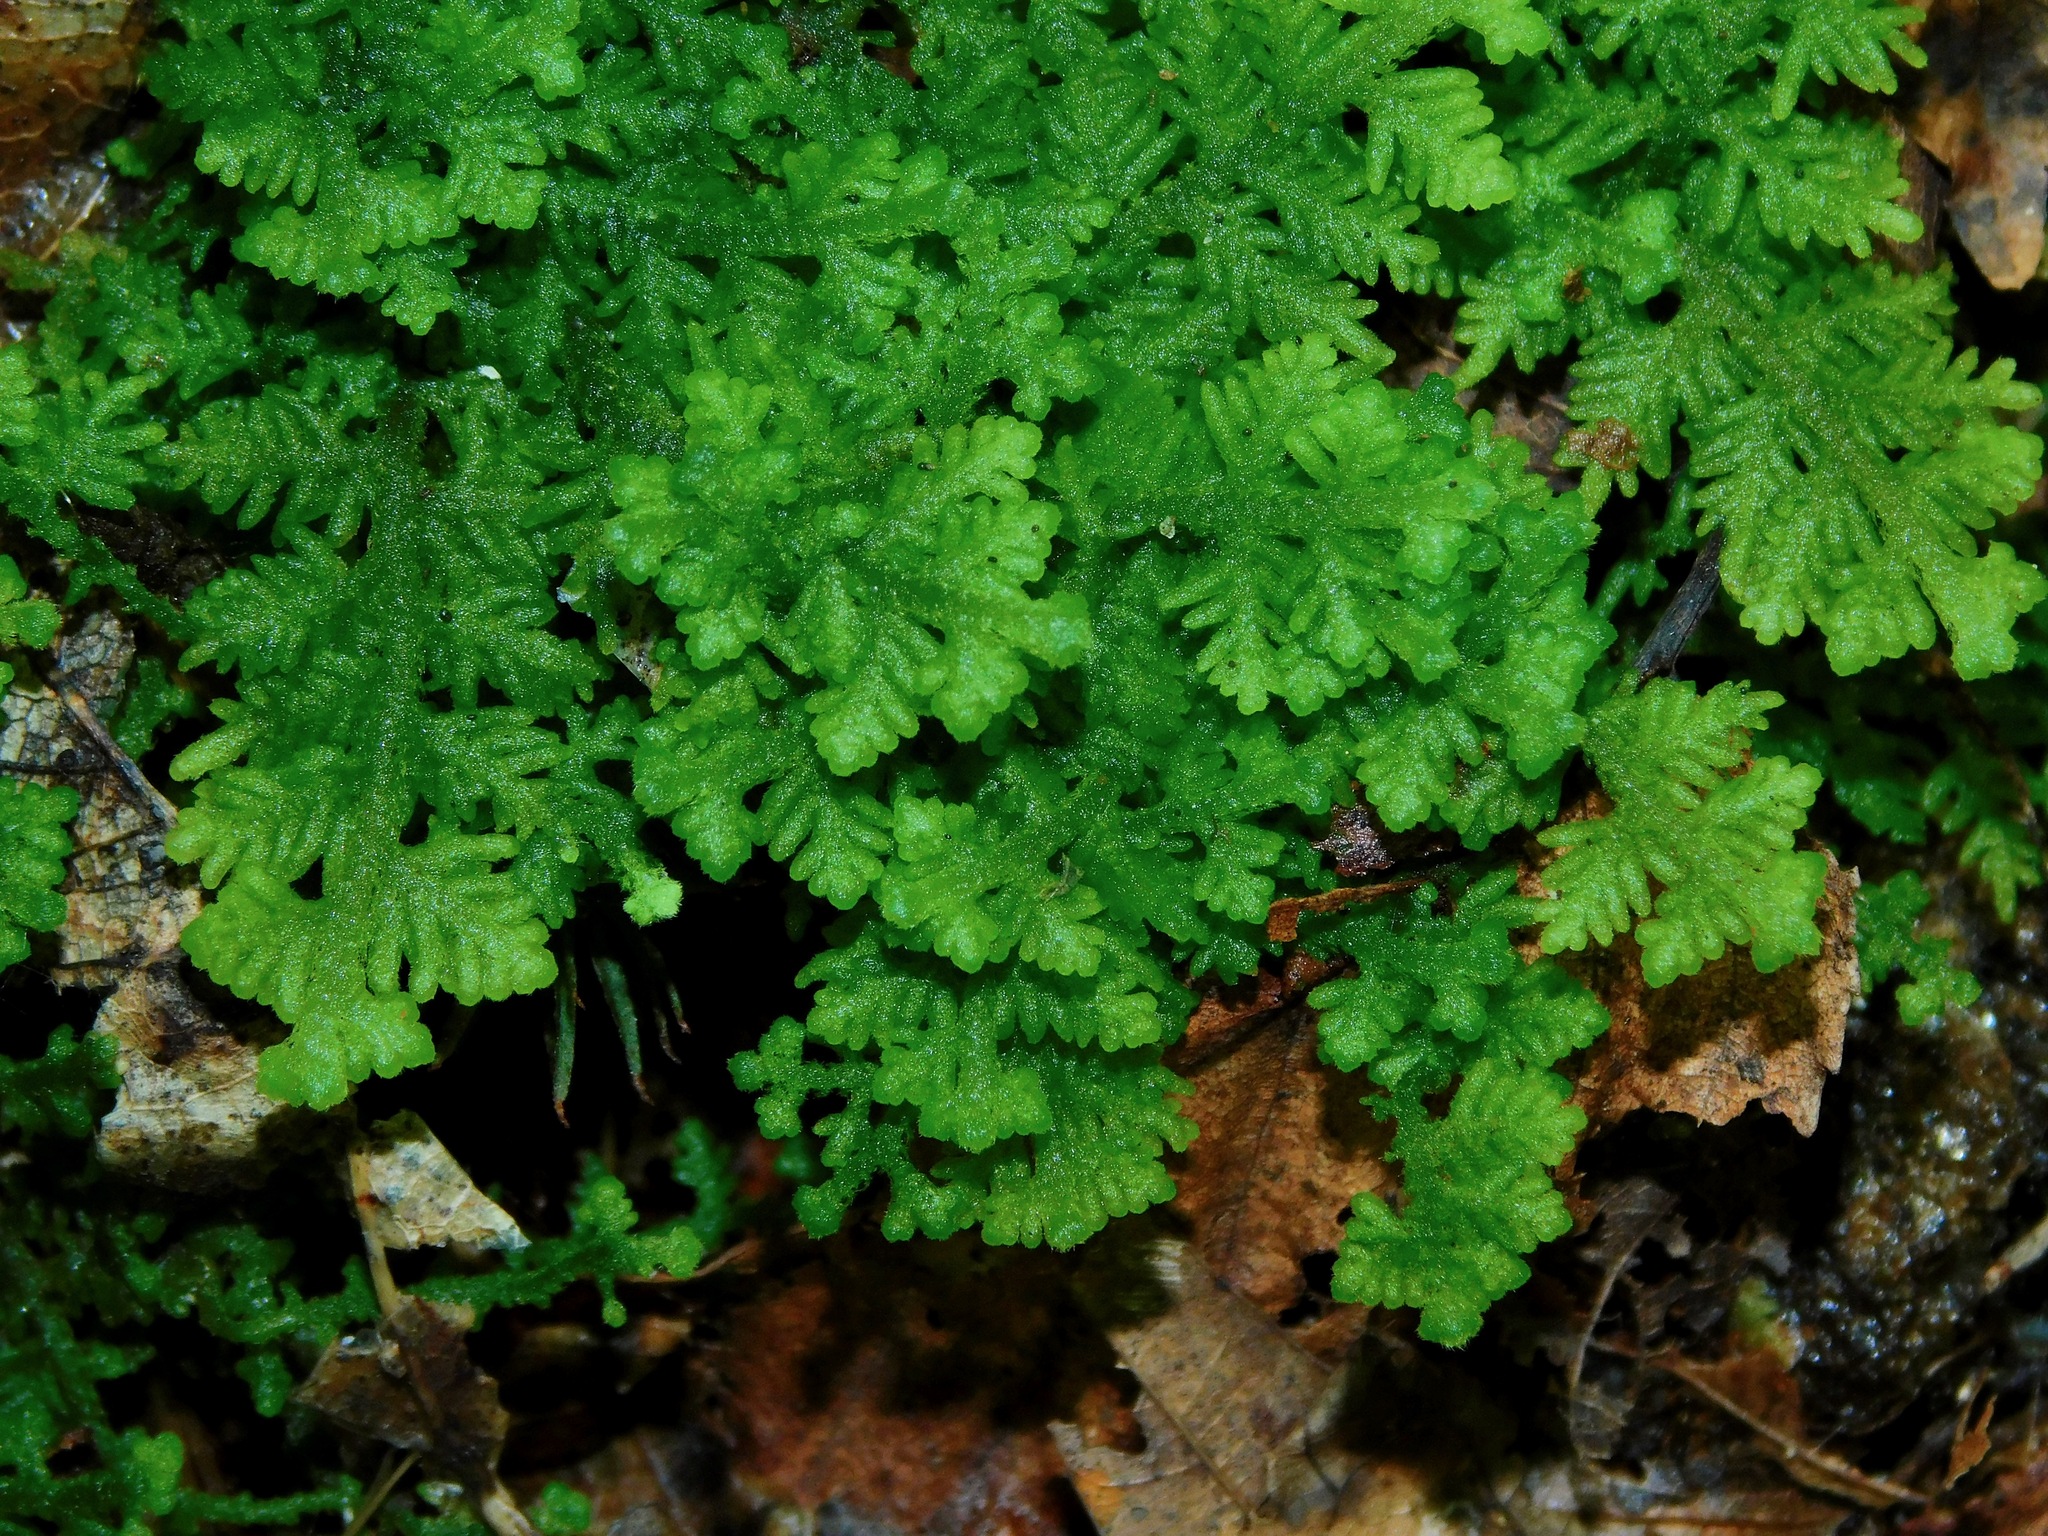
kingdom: Plantae
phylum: Marchantiophyta
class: Jungermanniopsida
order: Jungermanniales
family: Trichocoleaceae
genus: Trichocolea
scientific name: Trichocolea tomentella
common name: Woolly liverwort
